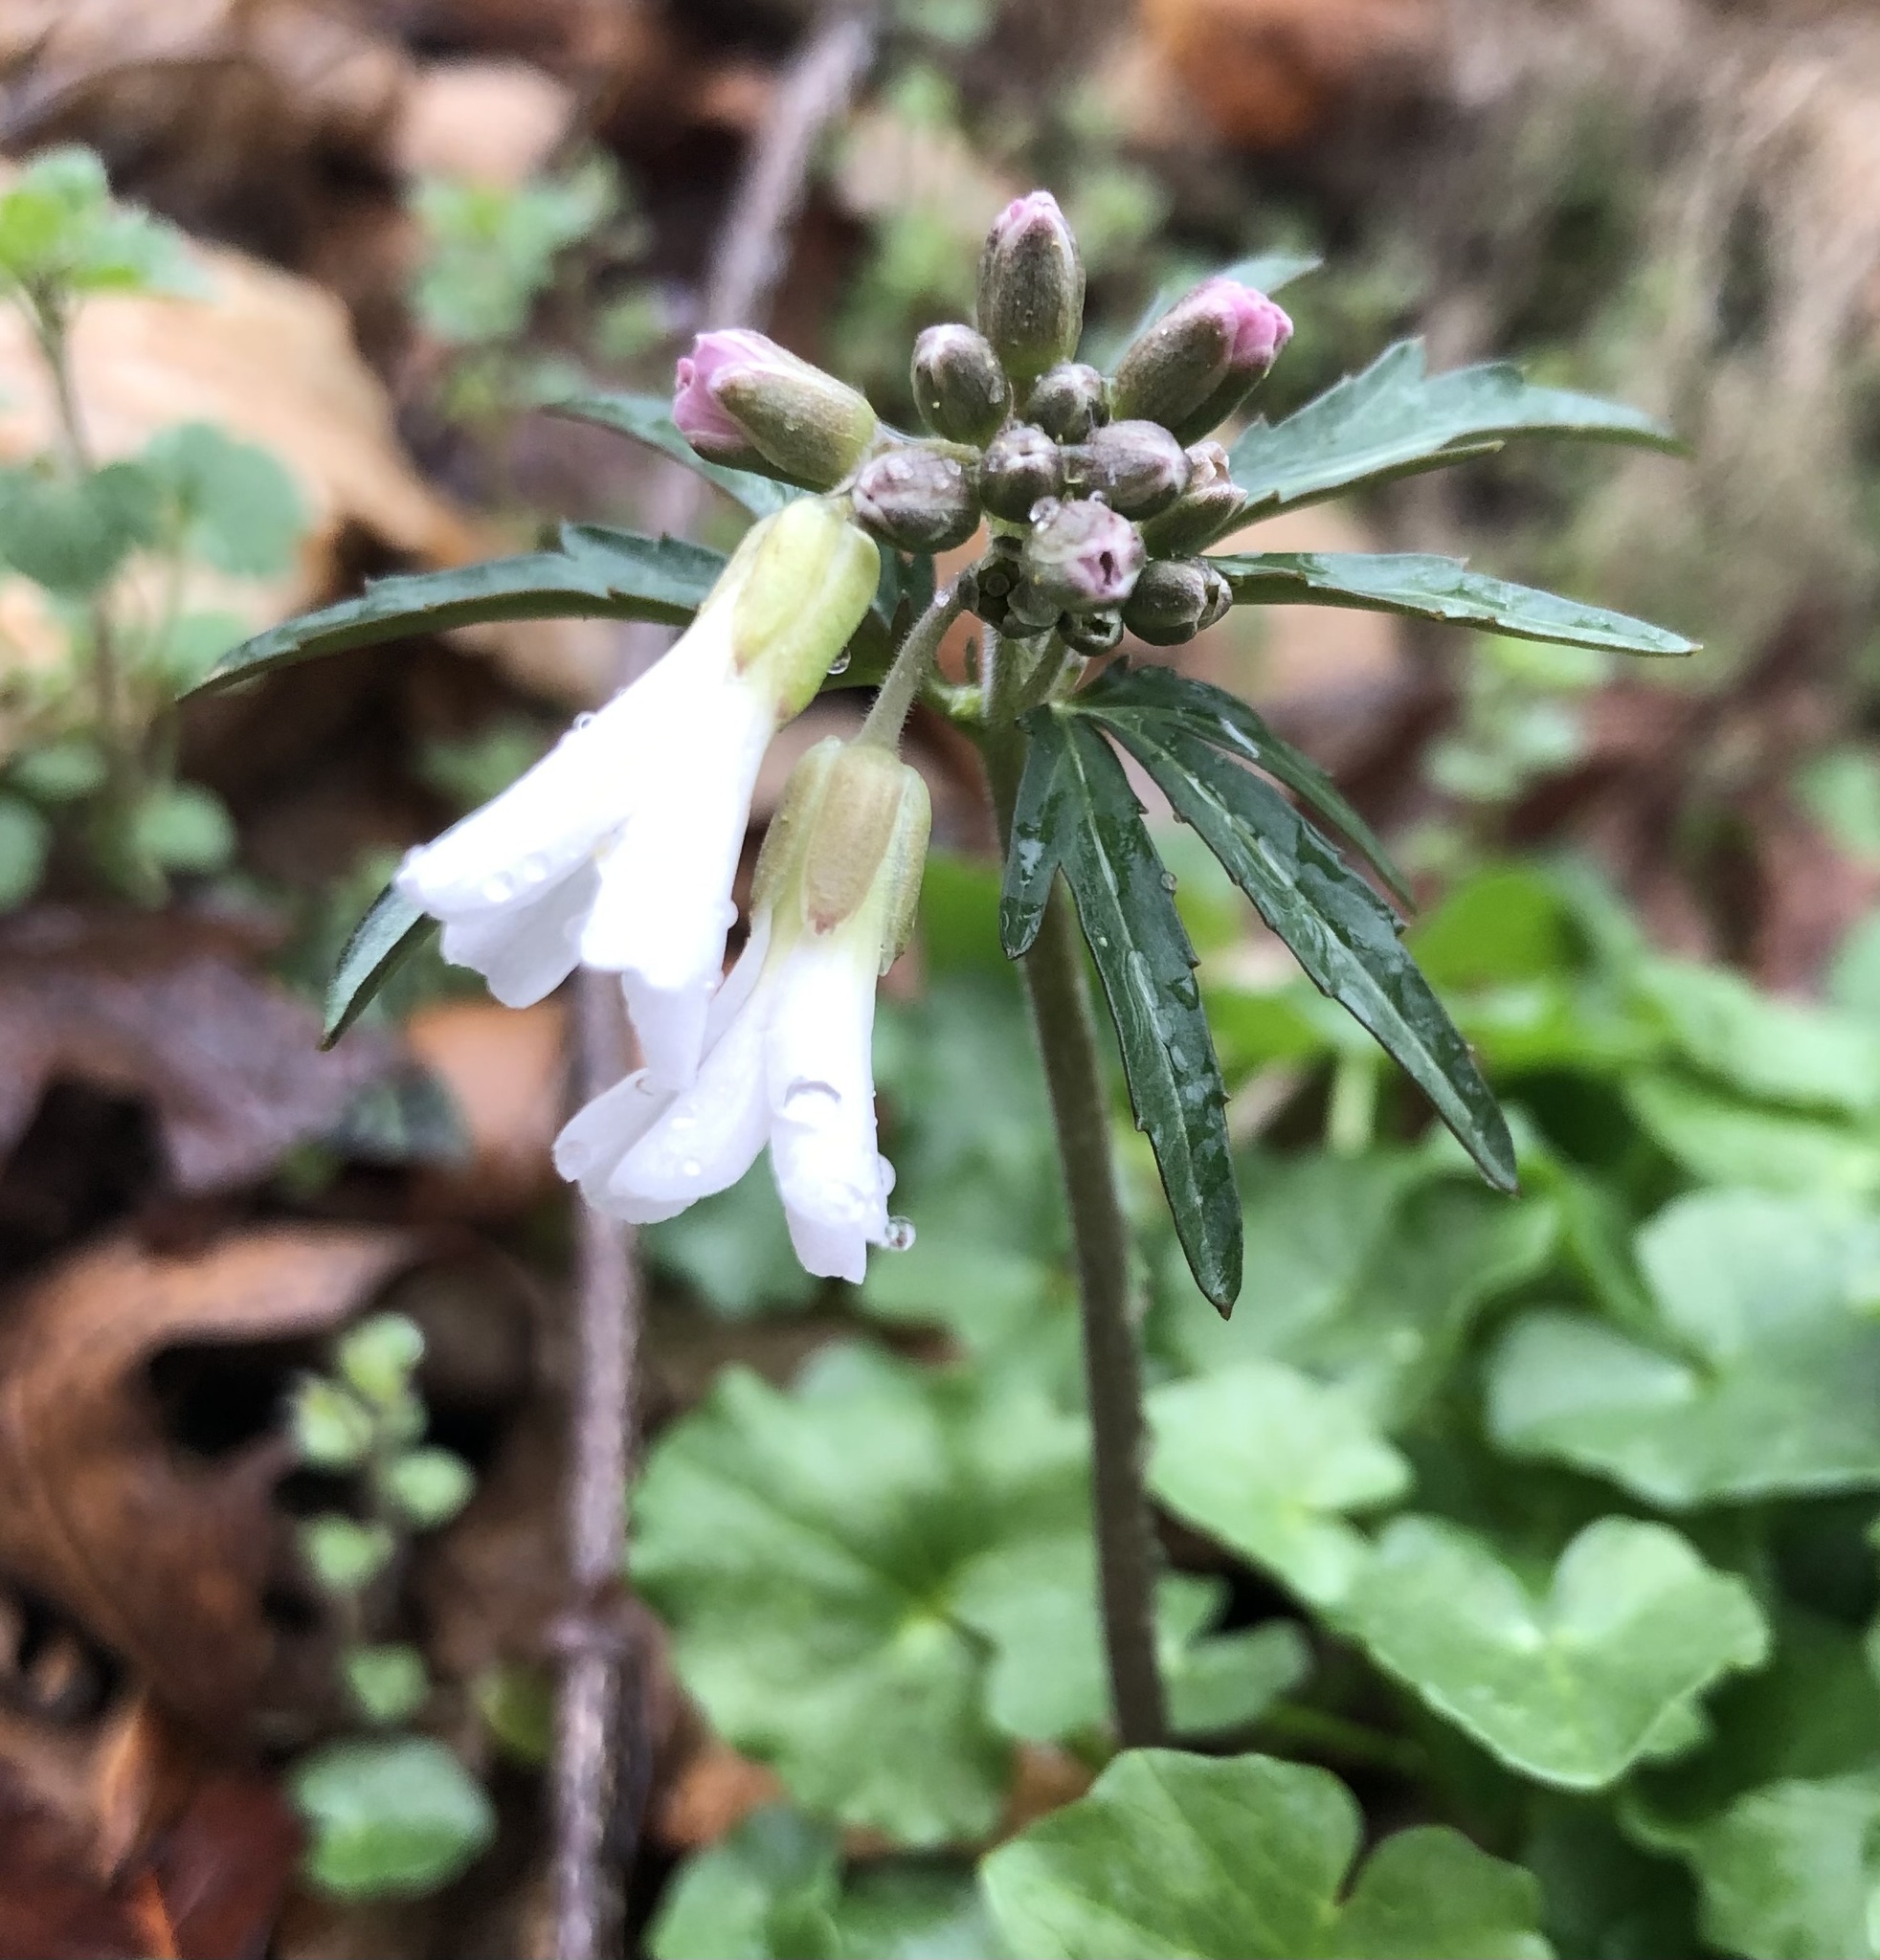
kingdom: Plantae
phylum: Tracheophyta
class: Magnoliopsida
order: Brassicales
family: Brassicaceae
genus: Cardamine
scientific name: Cardamine concatenata
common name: Cut-leaf toothcup
